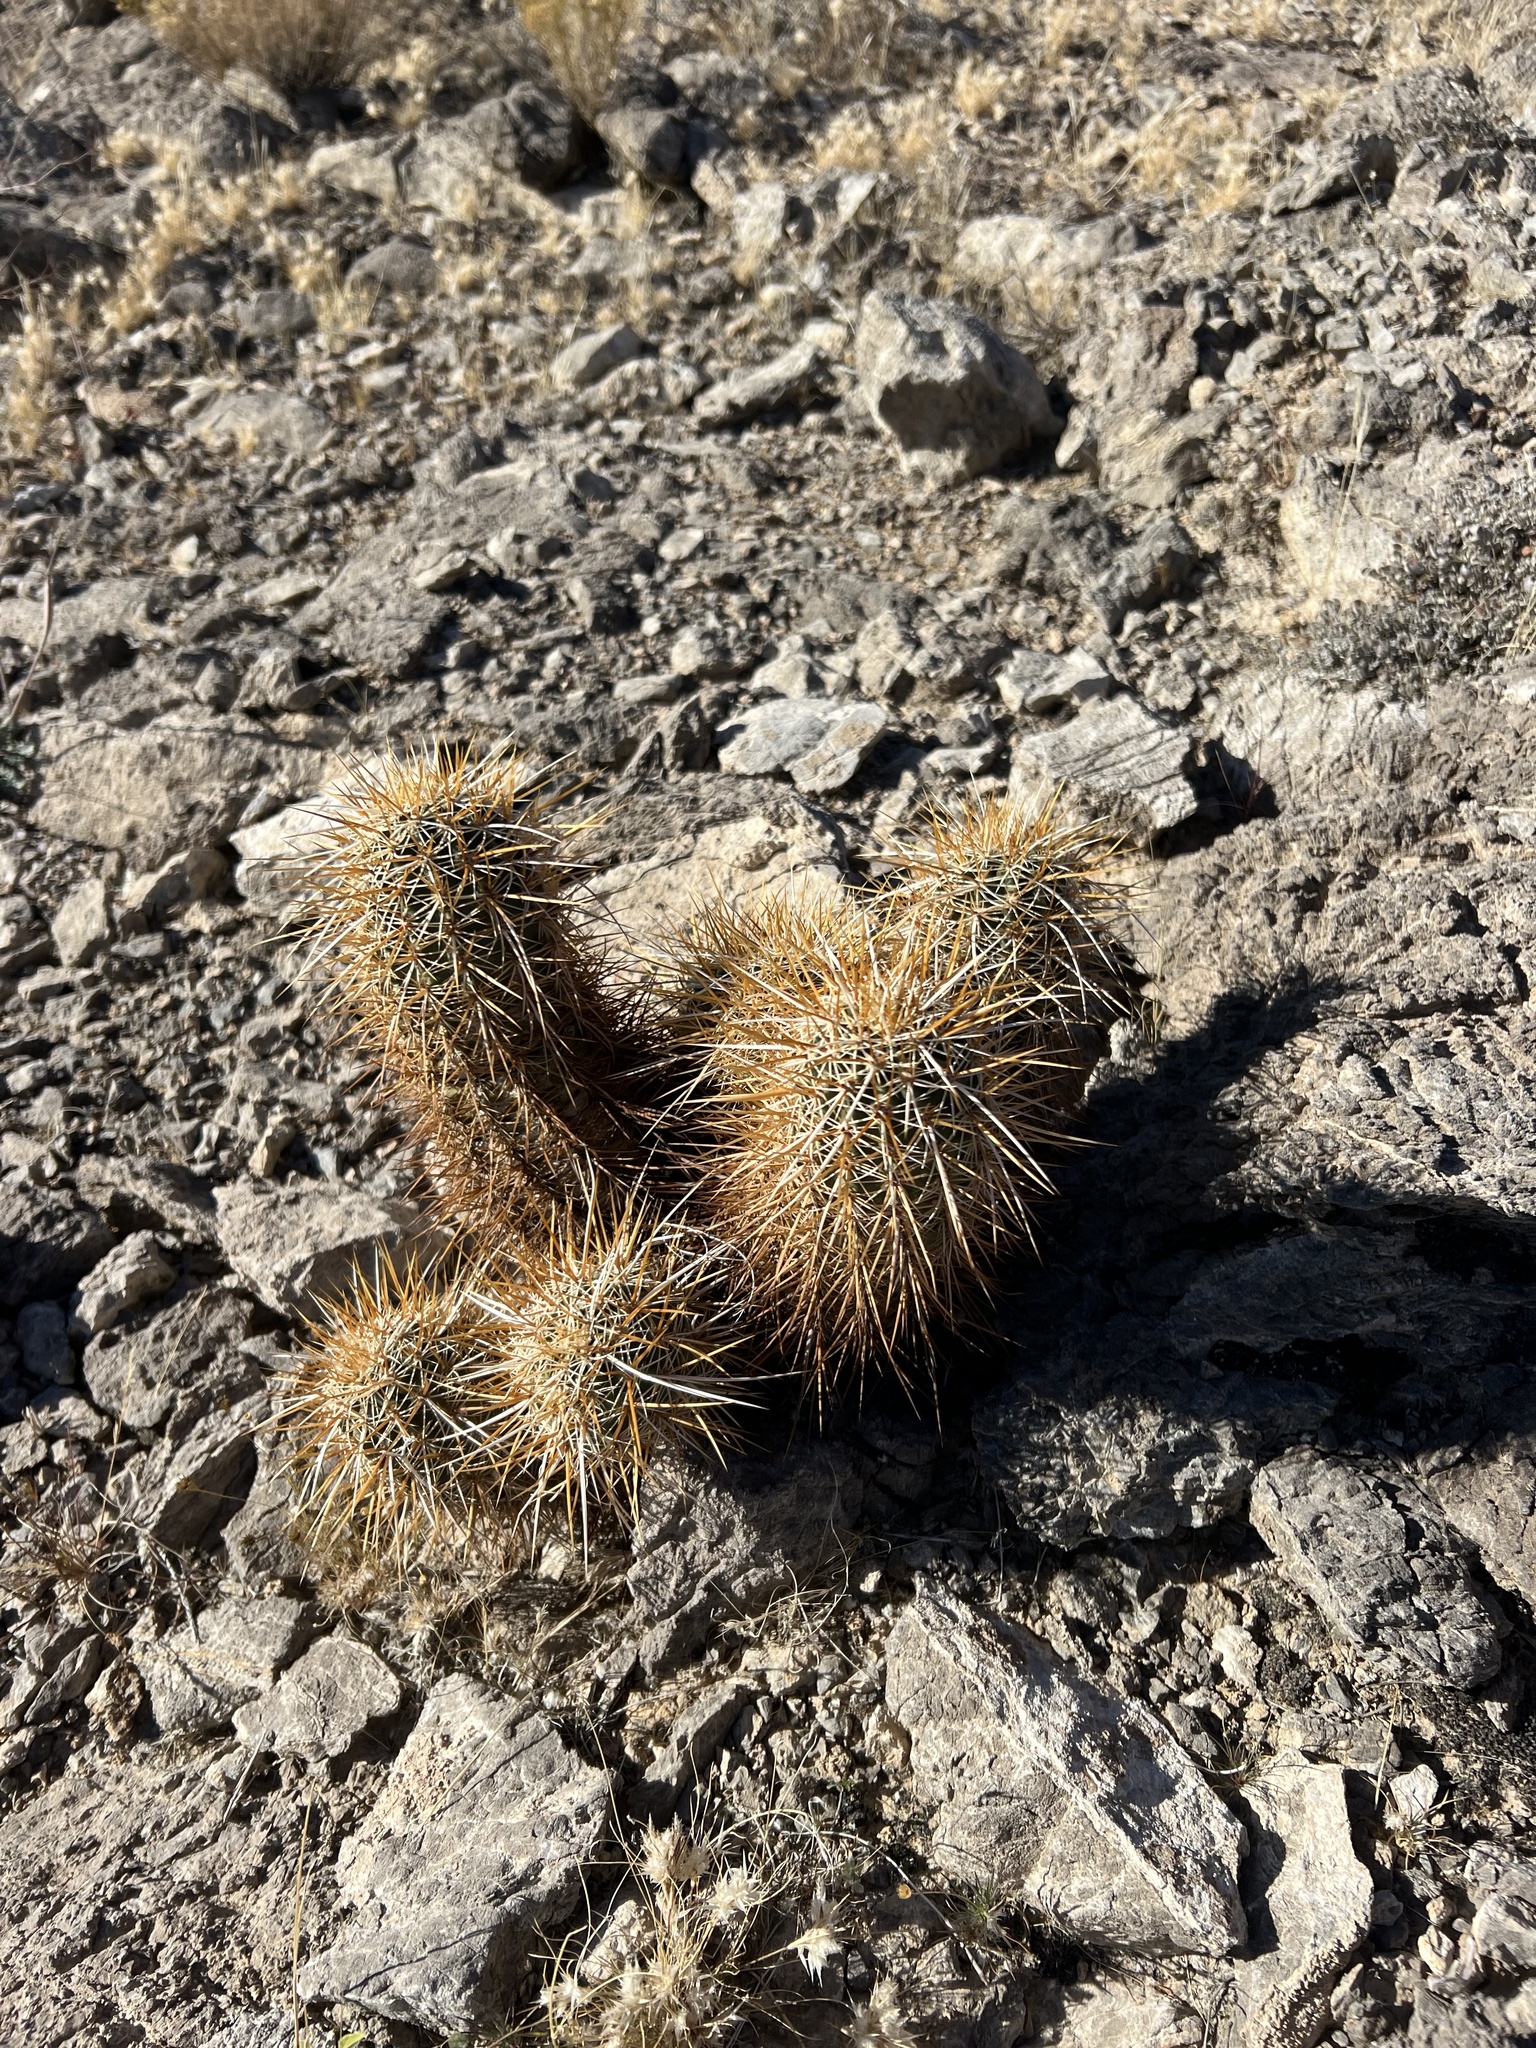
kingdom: Plantae
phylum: Tracheophyta
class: Magnoliopsida
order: Caryophyllales
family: Cactaceae
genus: Echinocereus
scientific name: Echinocereus engelmannii
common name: Engelmann's hedgehog cactus
